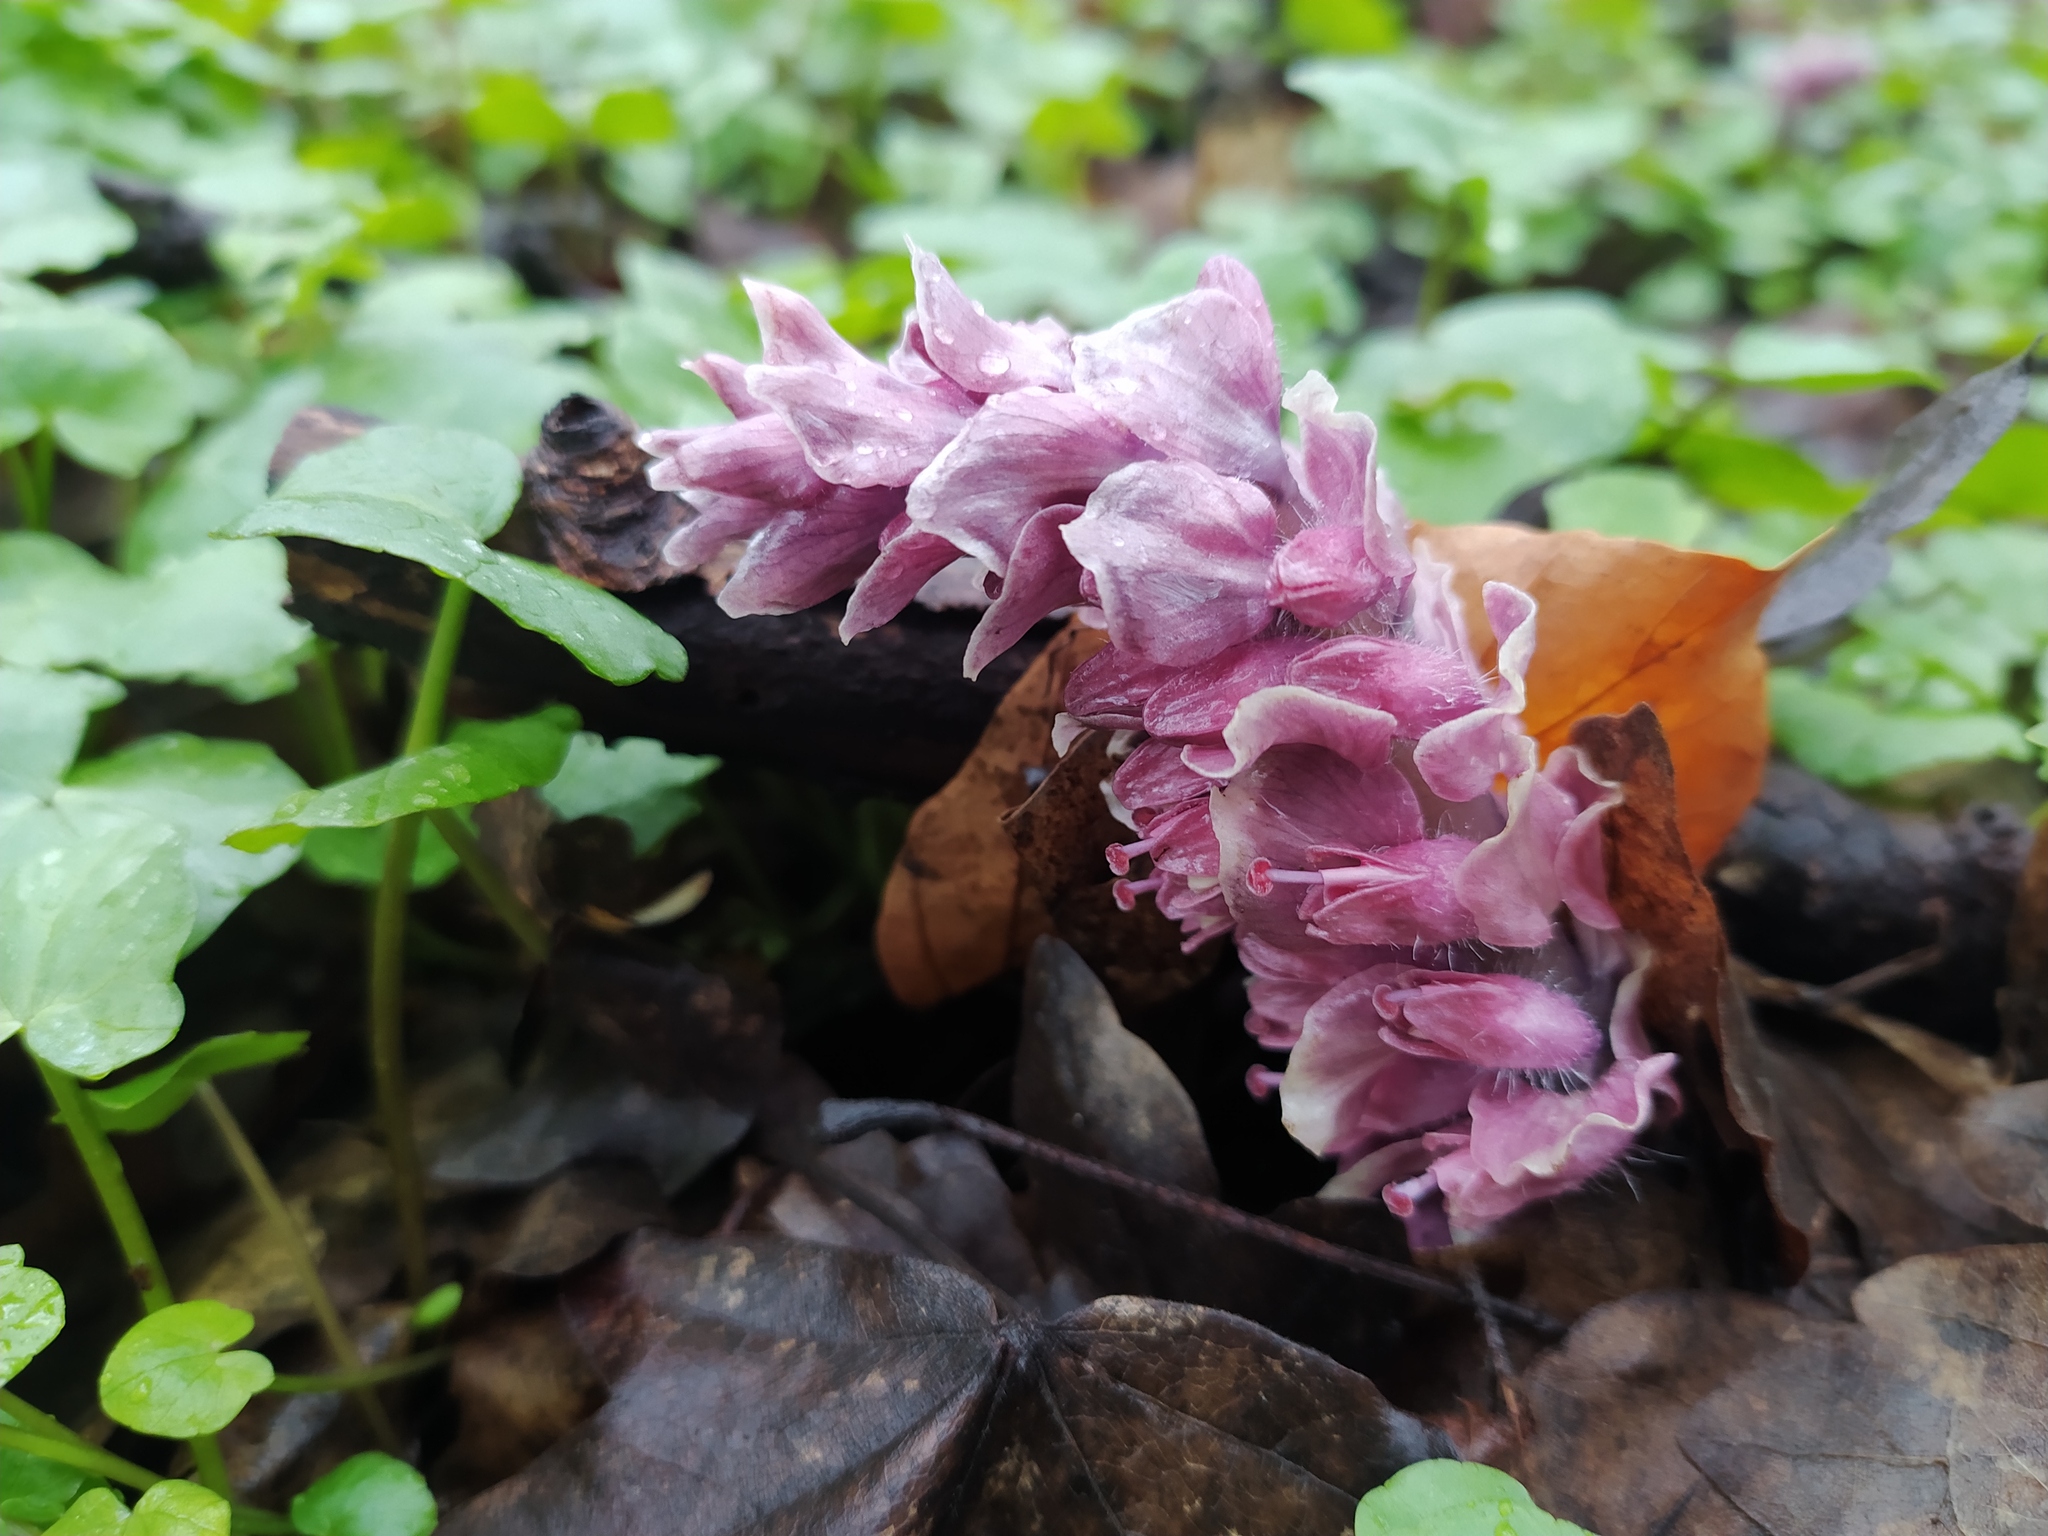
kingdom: Plantae
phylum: Tracheophyta
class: Magnoliopsida
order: Lamiales
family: Orobanchaceae
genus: Lathraea
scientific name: Lathraea squamaria
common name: Toothwort
